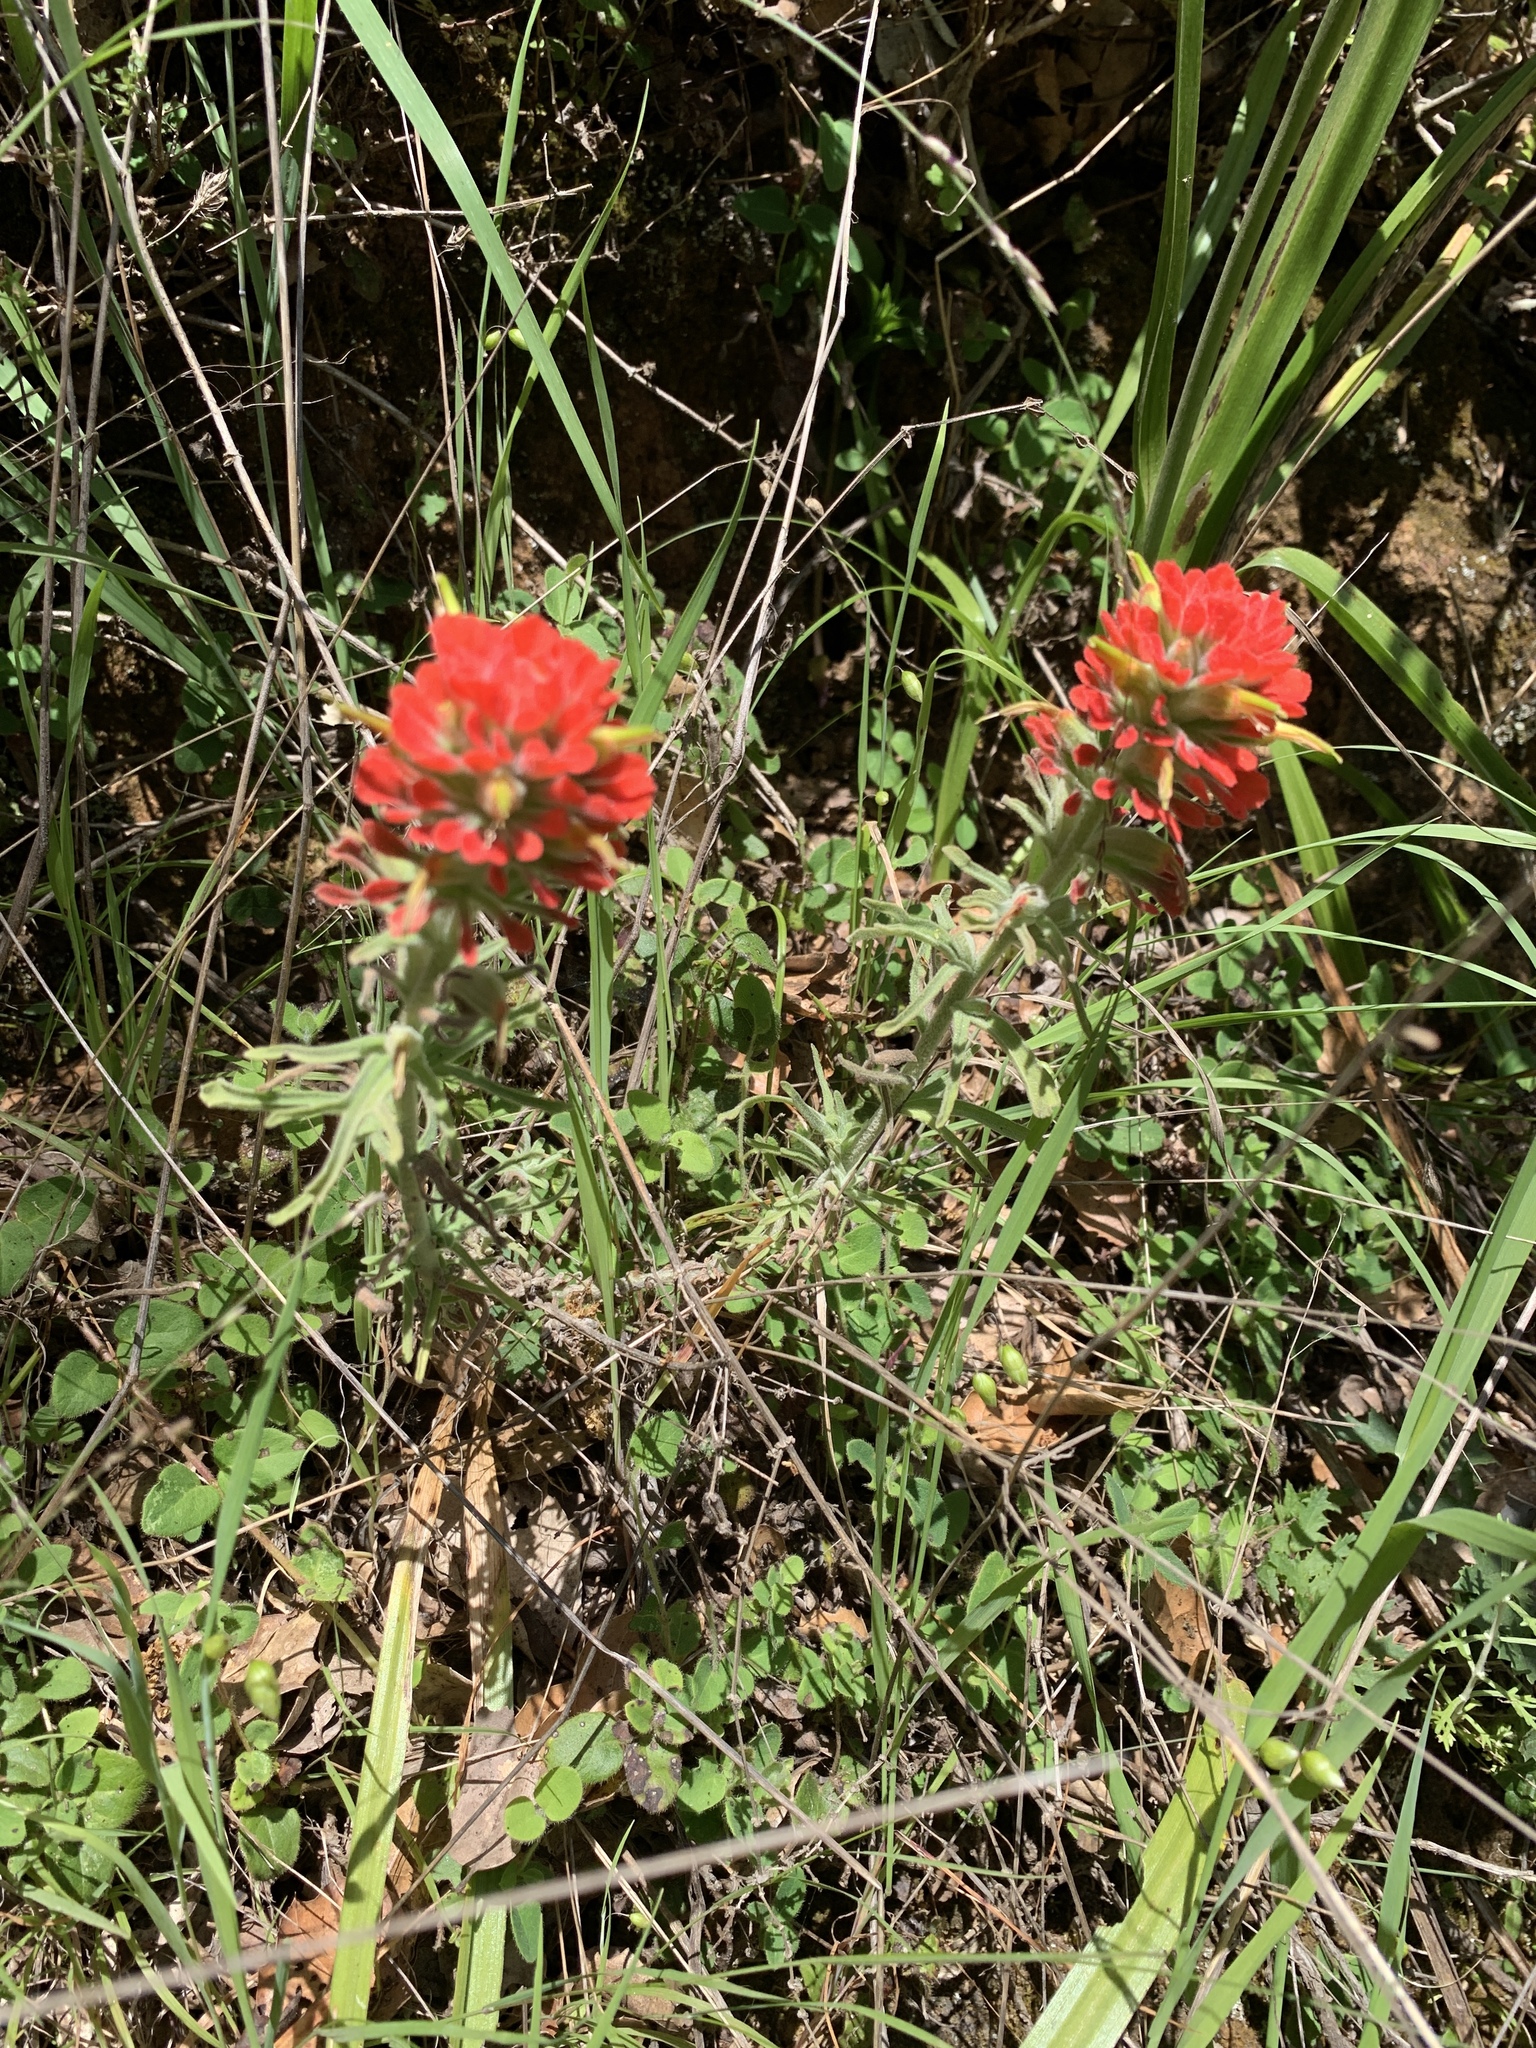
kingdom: Plantae
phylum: Tracheophyta
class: Magnoliopsida
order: Lamiales
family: Orobanchaceae
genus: Castilleja
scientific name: Castilleja foliolosa
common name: Woolly indian paintbrush
